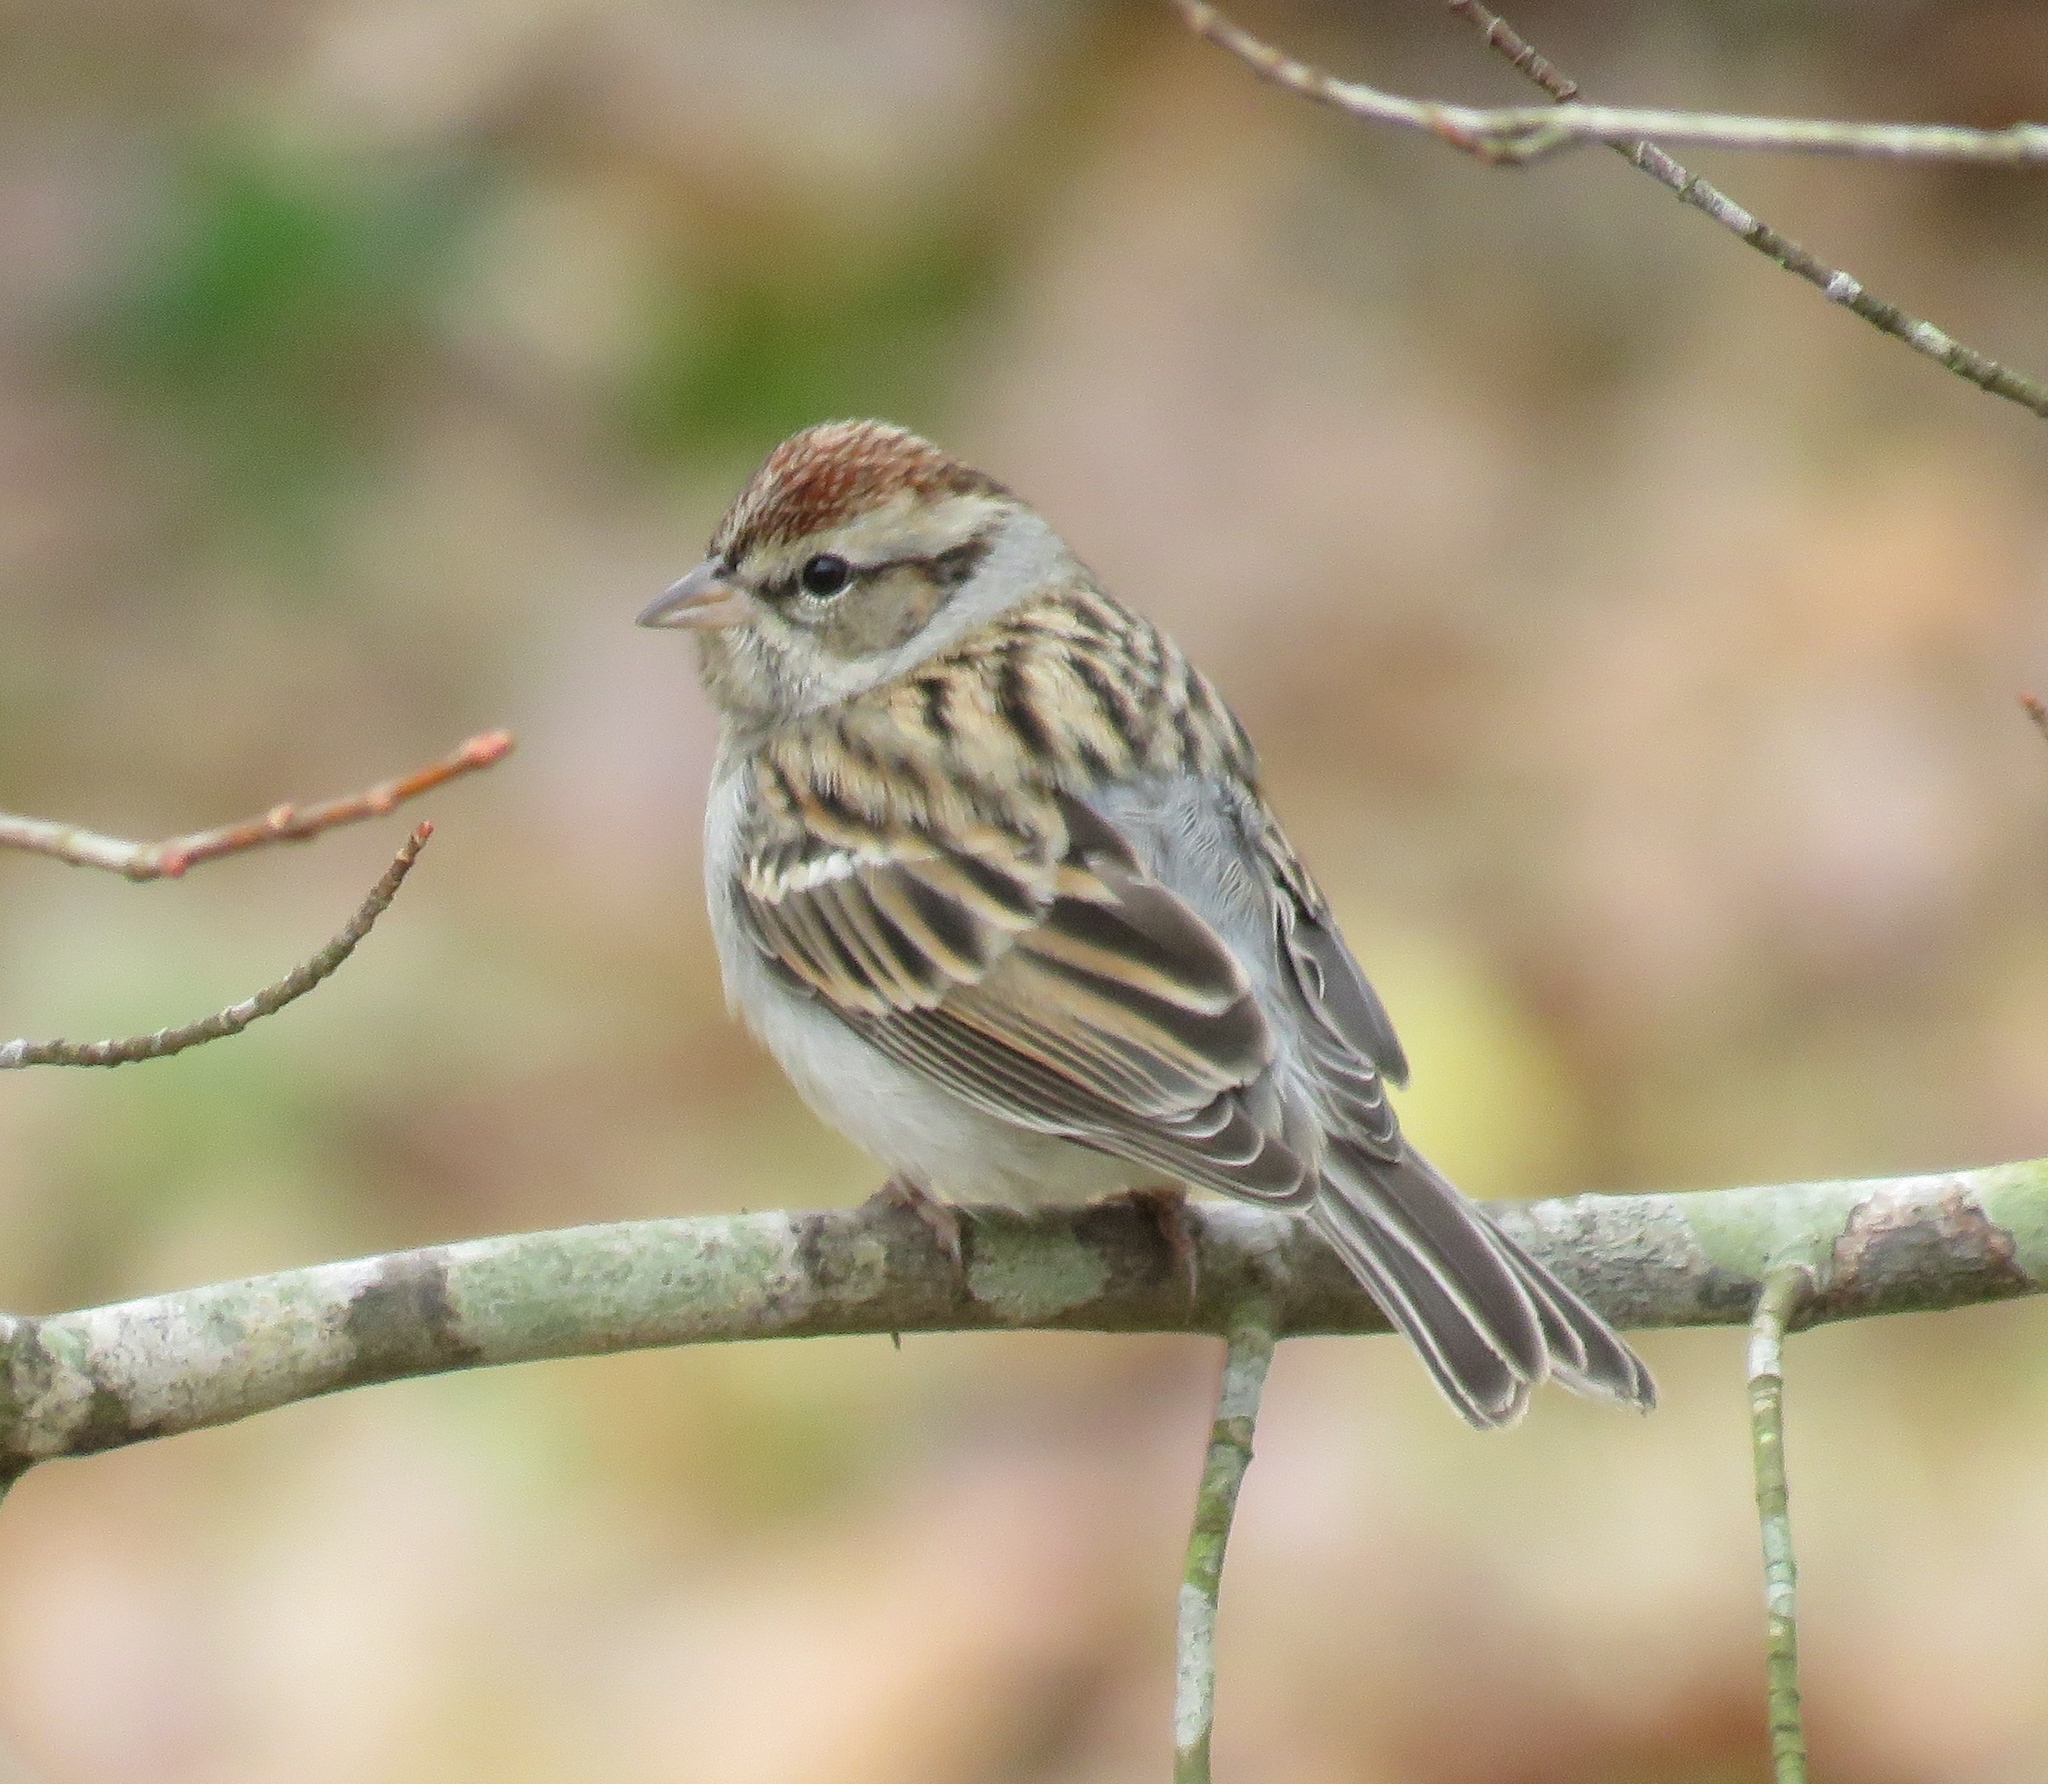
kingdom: Animalia
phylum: Chordata
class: Aves
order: Passeriformes
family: Passerellidae
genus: Spizella
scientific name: Spizella passerina
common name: Chipping sparrow
